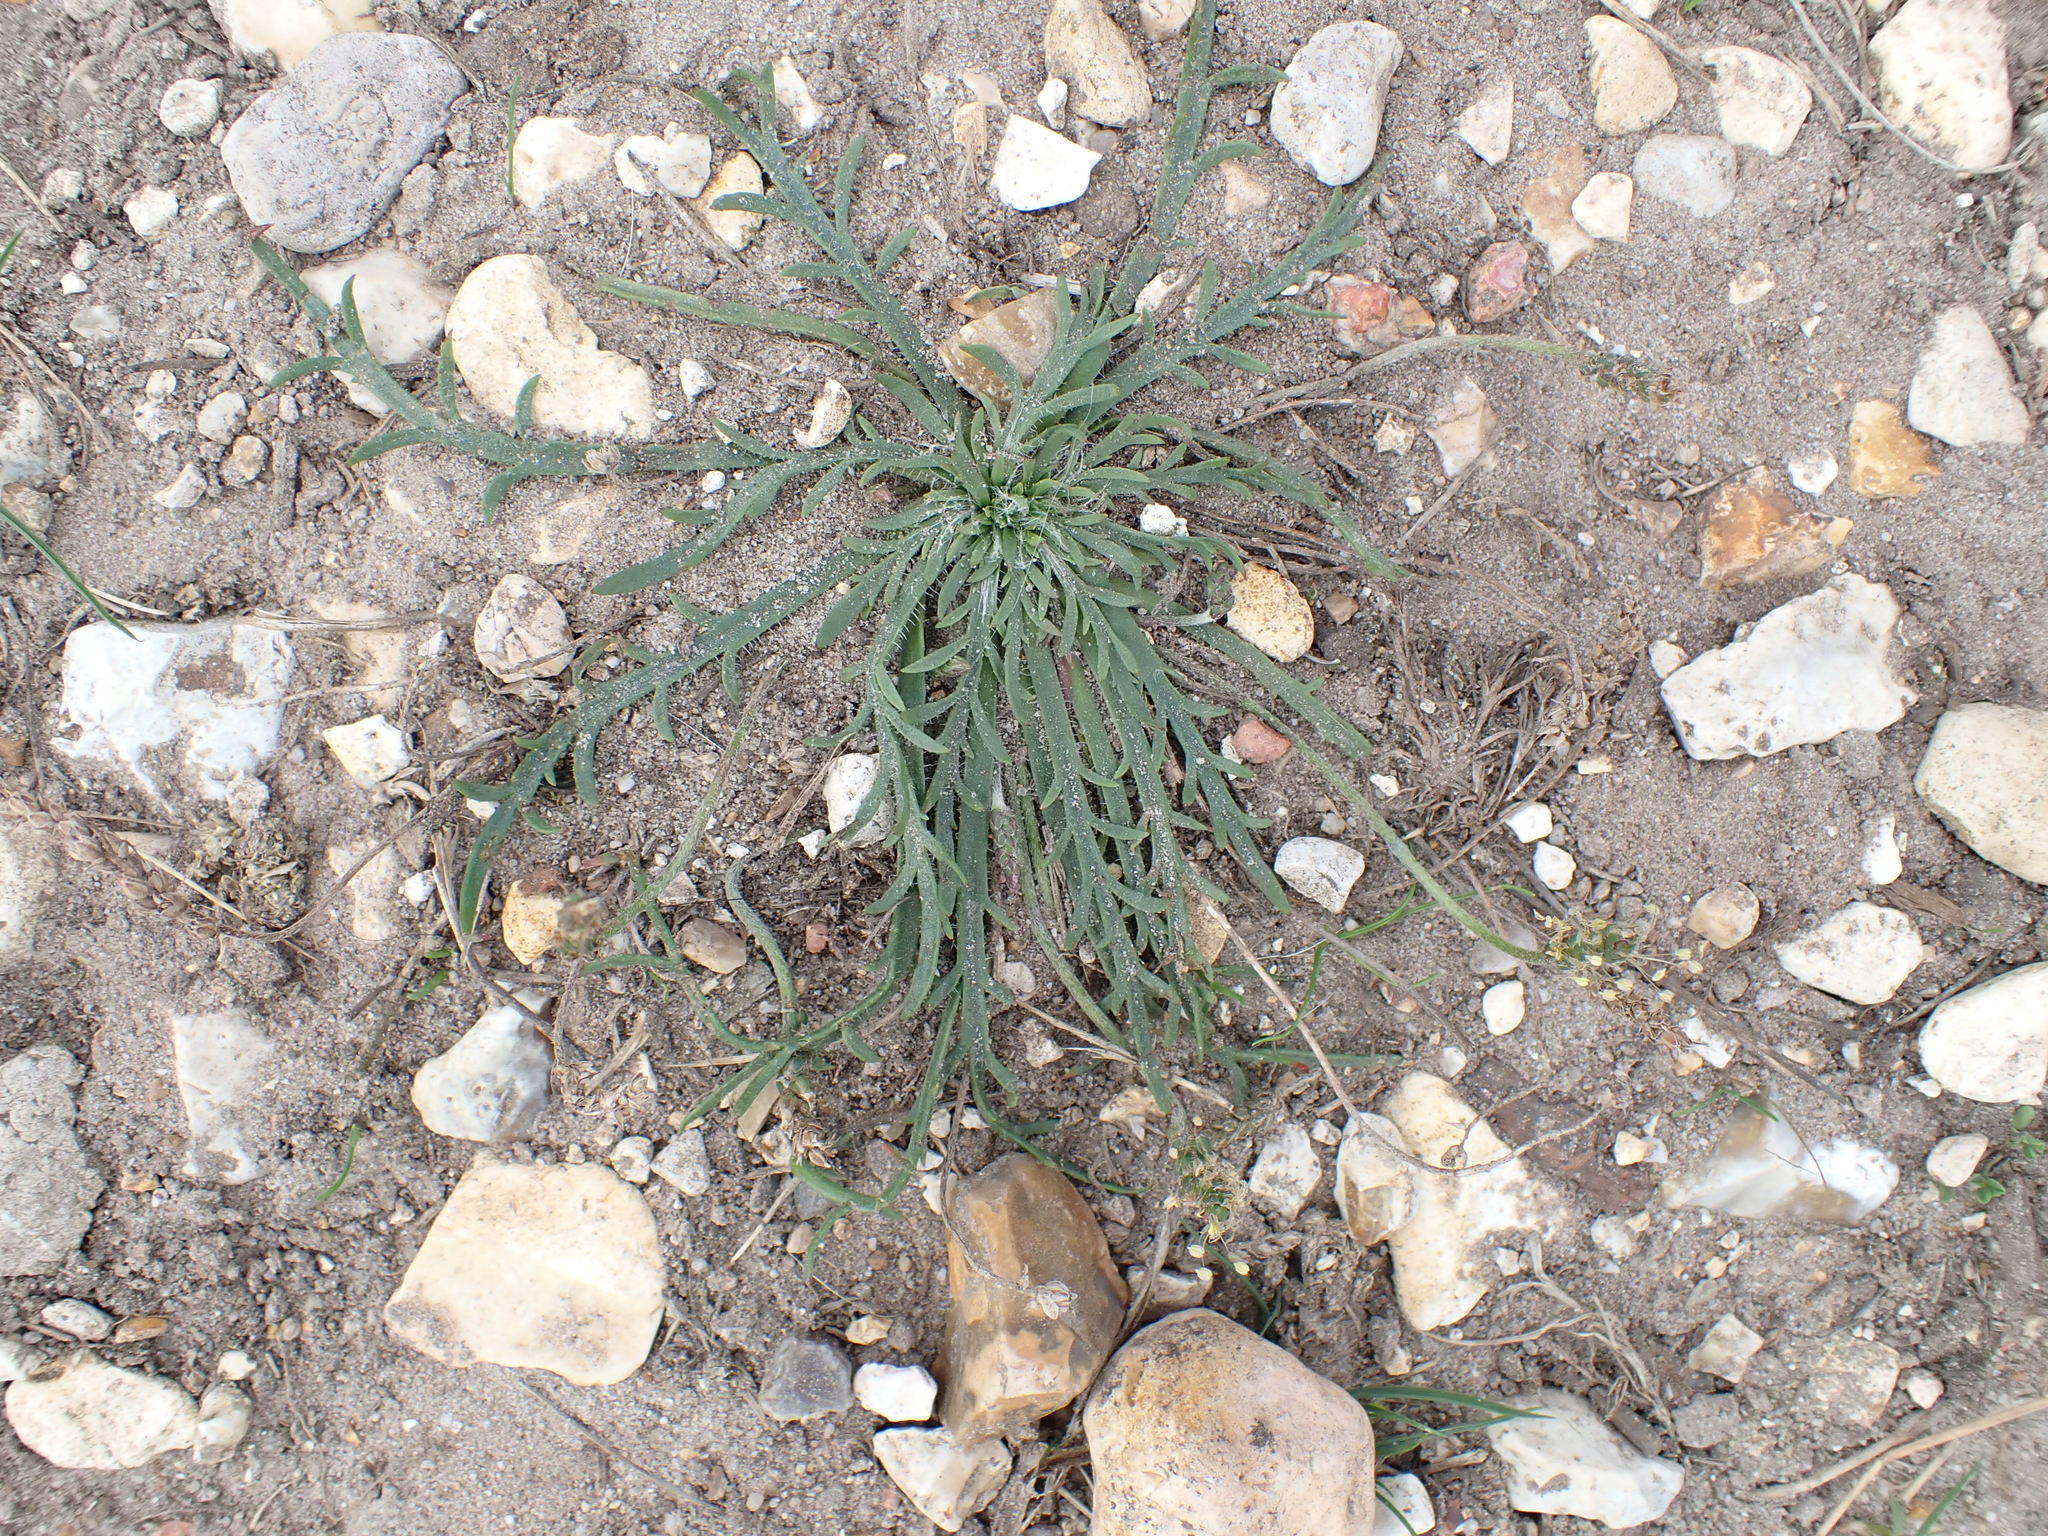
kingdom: Plantae
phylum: Tracheophyta
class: Magnoliopsida
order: Lamiales
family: Plantaginaceae
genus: Plantago
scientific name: Plantago coronopus
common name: Buck's-horn plantain
